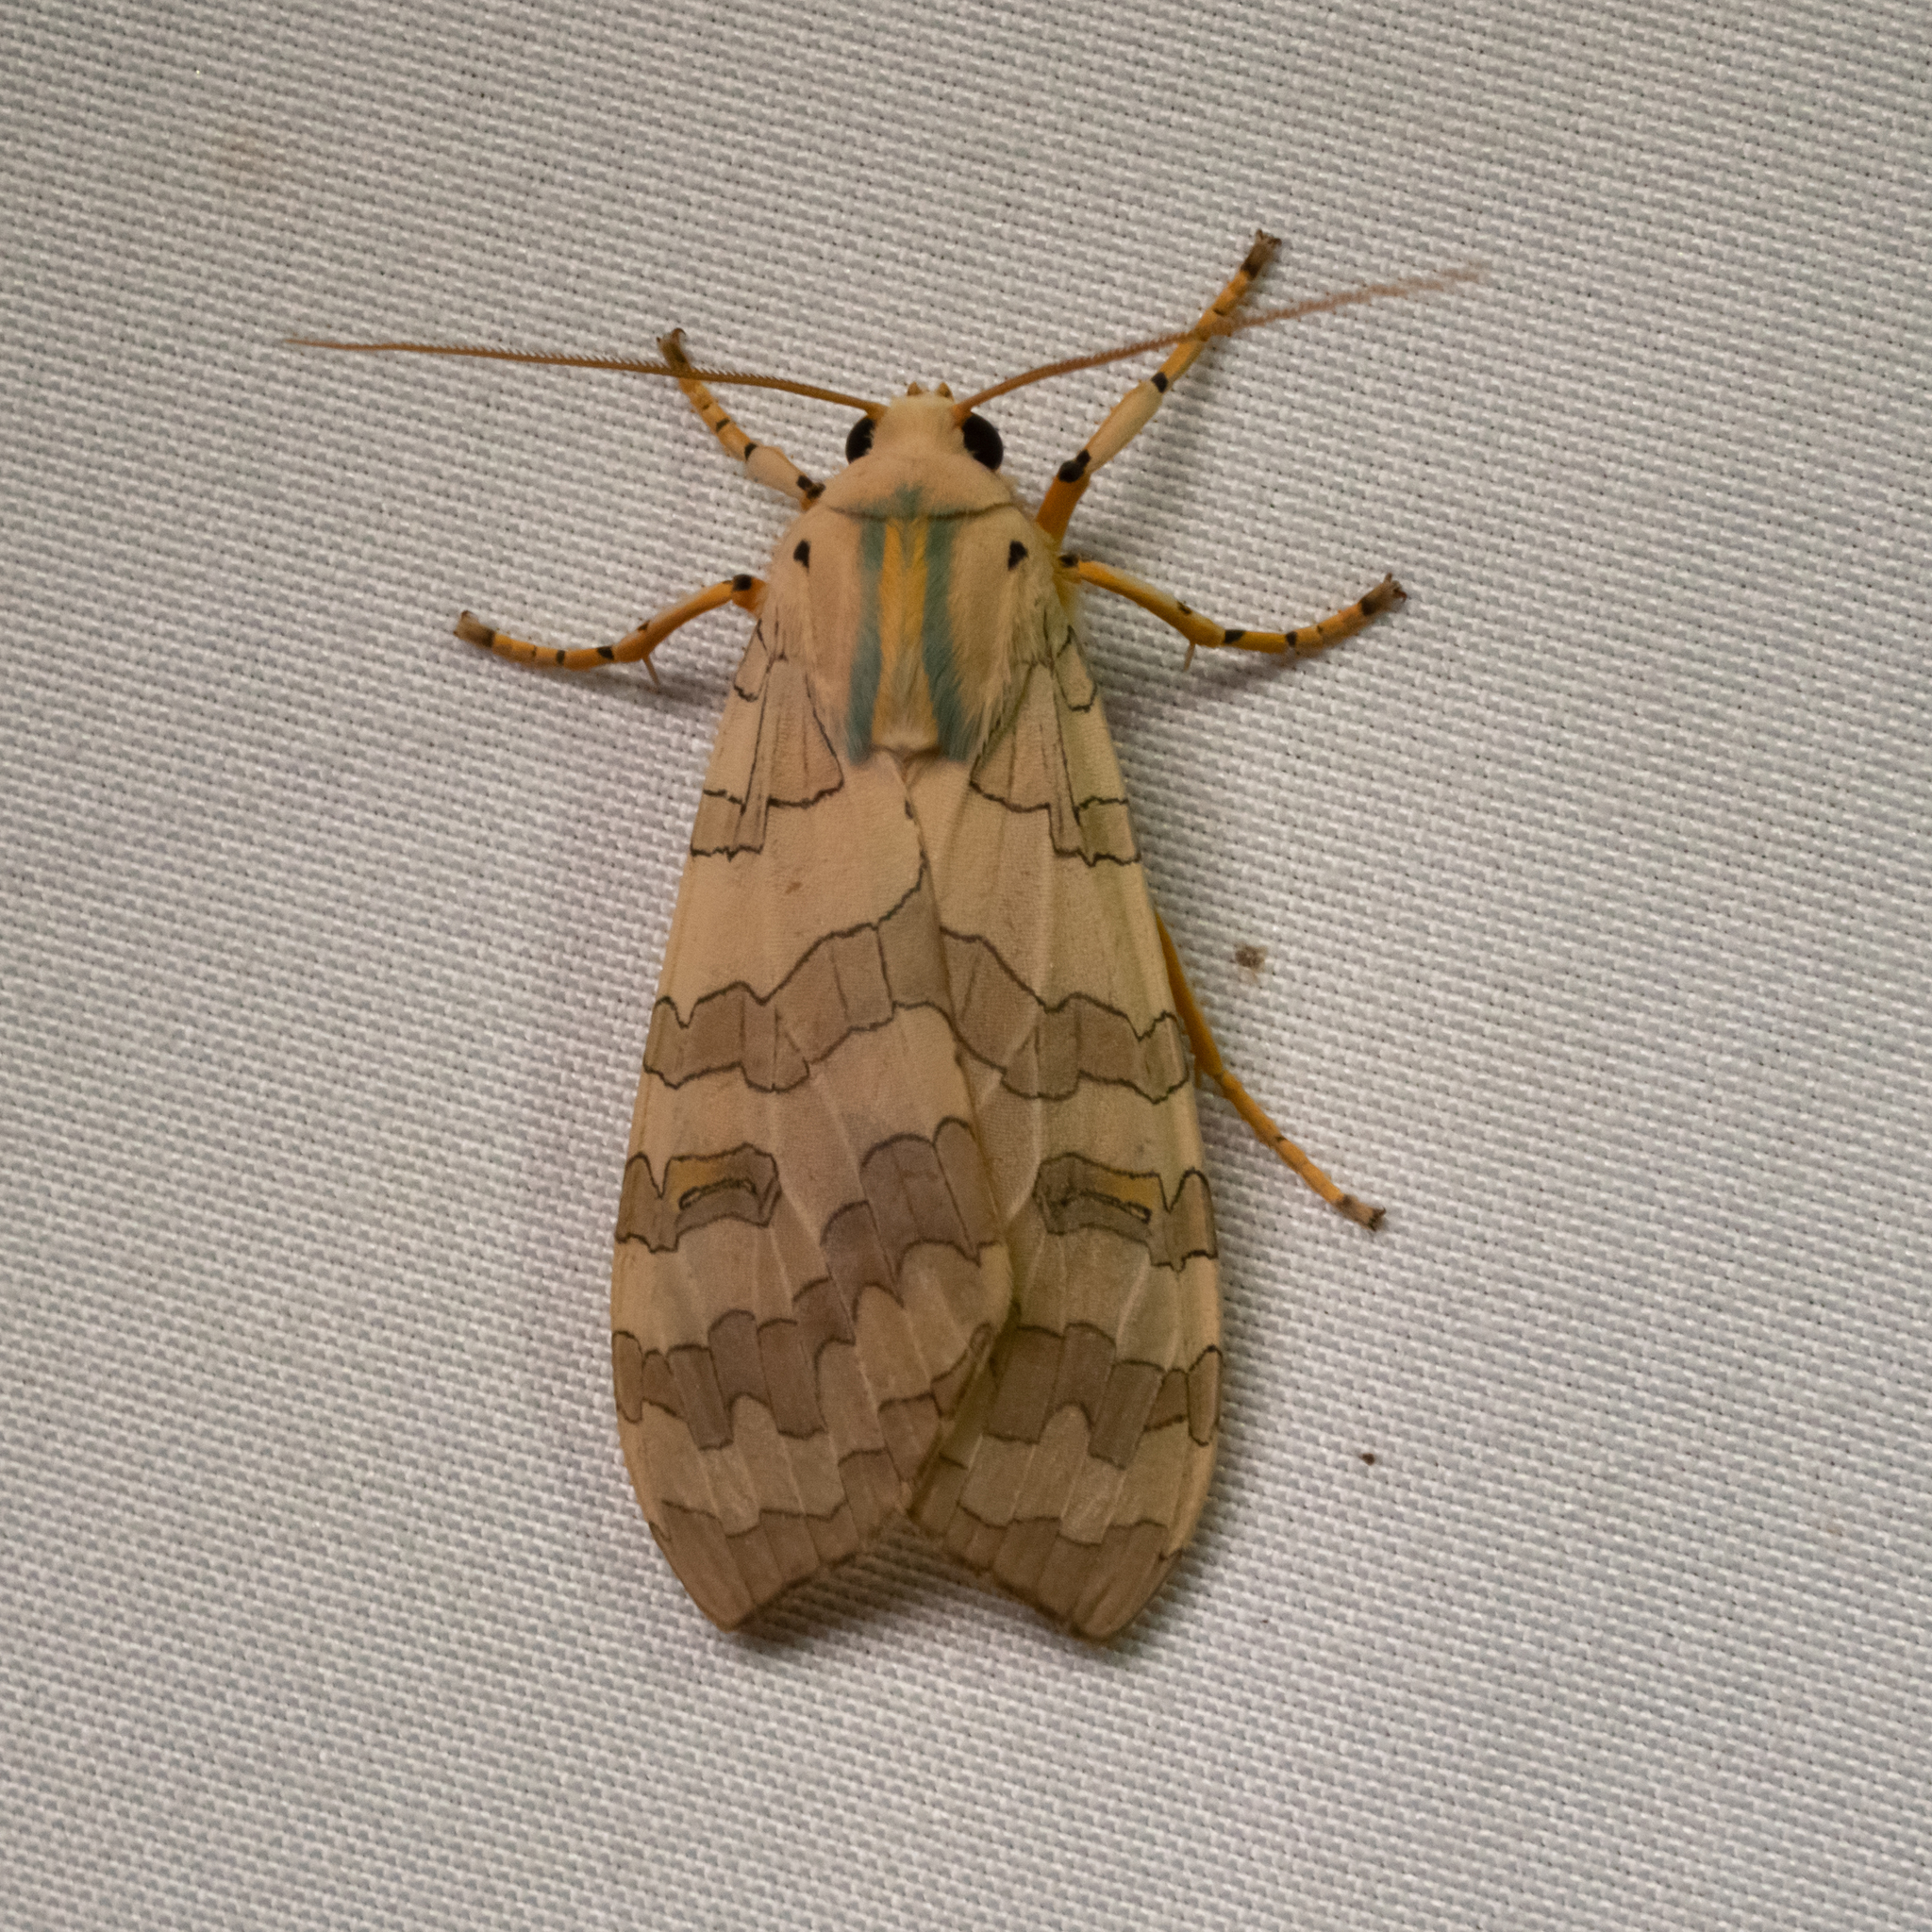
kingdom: Animalia
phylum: Arthropoda
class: Insecta
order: Lepidoptera
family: Erebidae
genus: Halysidota
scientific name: Halysidota
